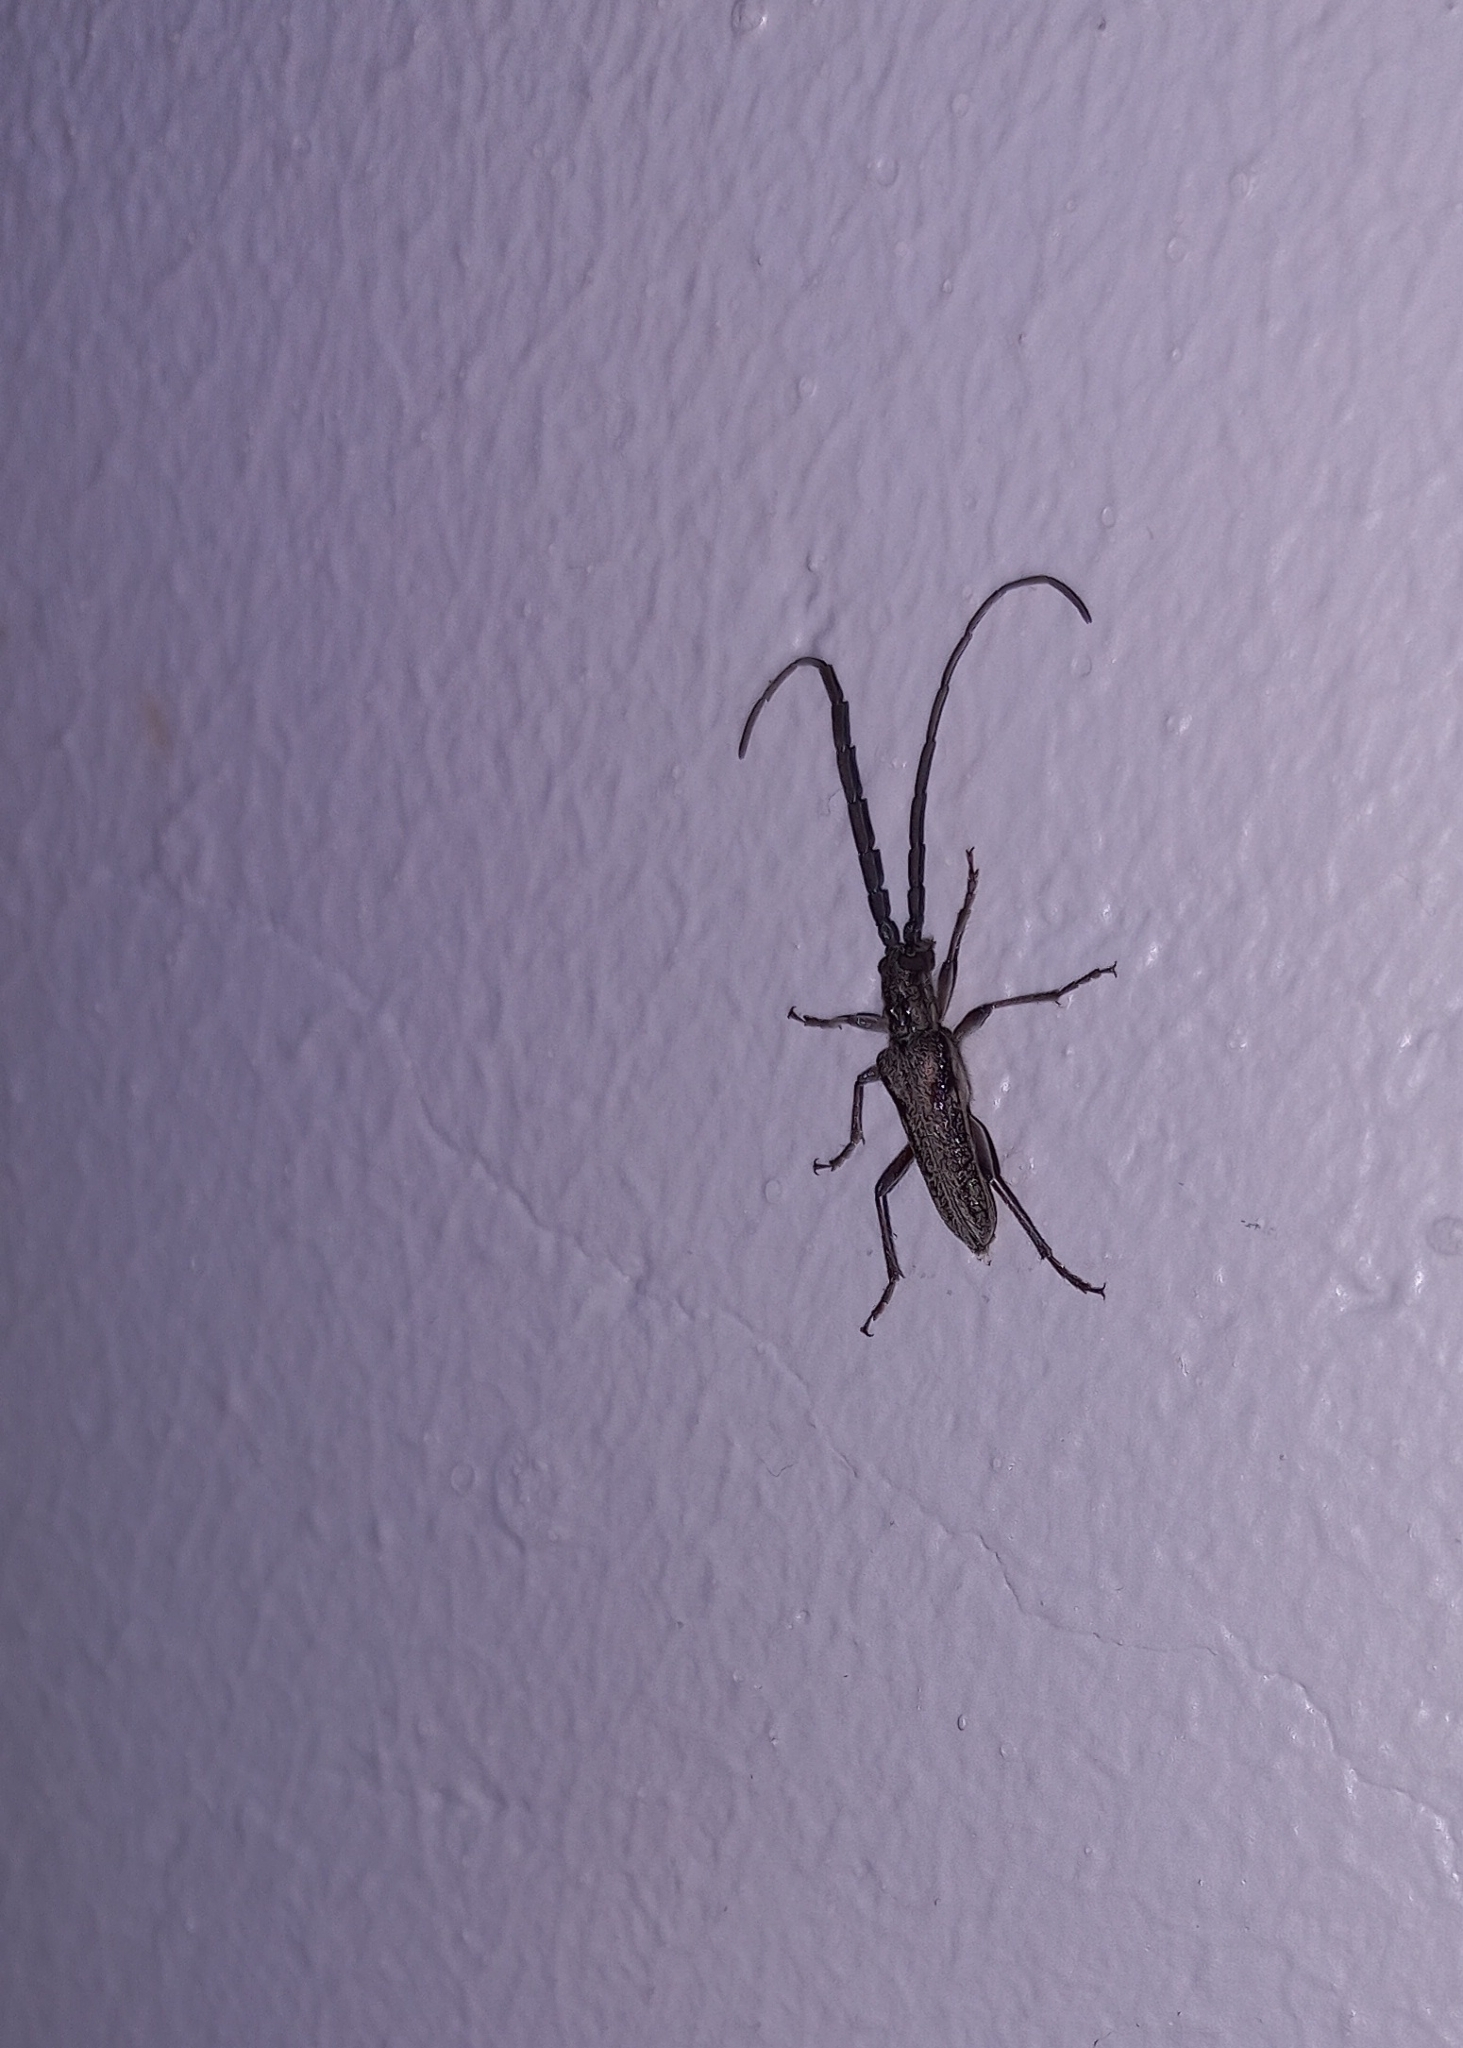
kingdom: Animalia
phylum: Arthropoda
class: Insecta
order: Coleoptera
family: Cerambycidae
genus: Capetoxotus
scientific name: Capetoxotus rugosus
